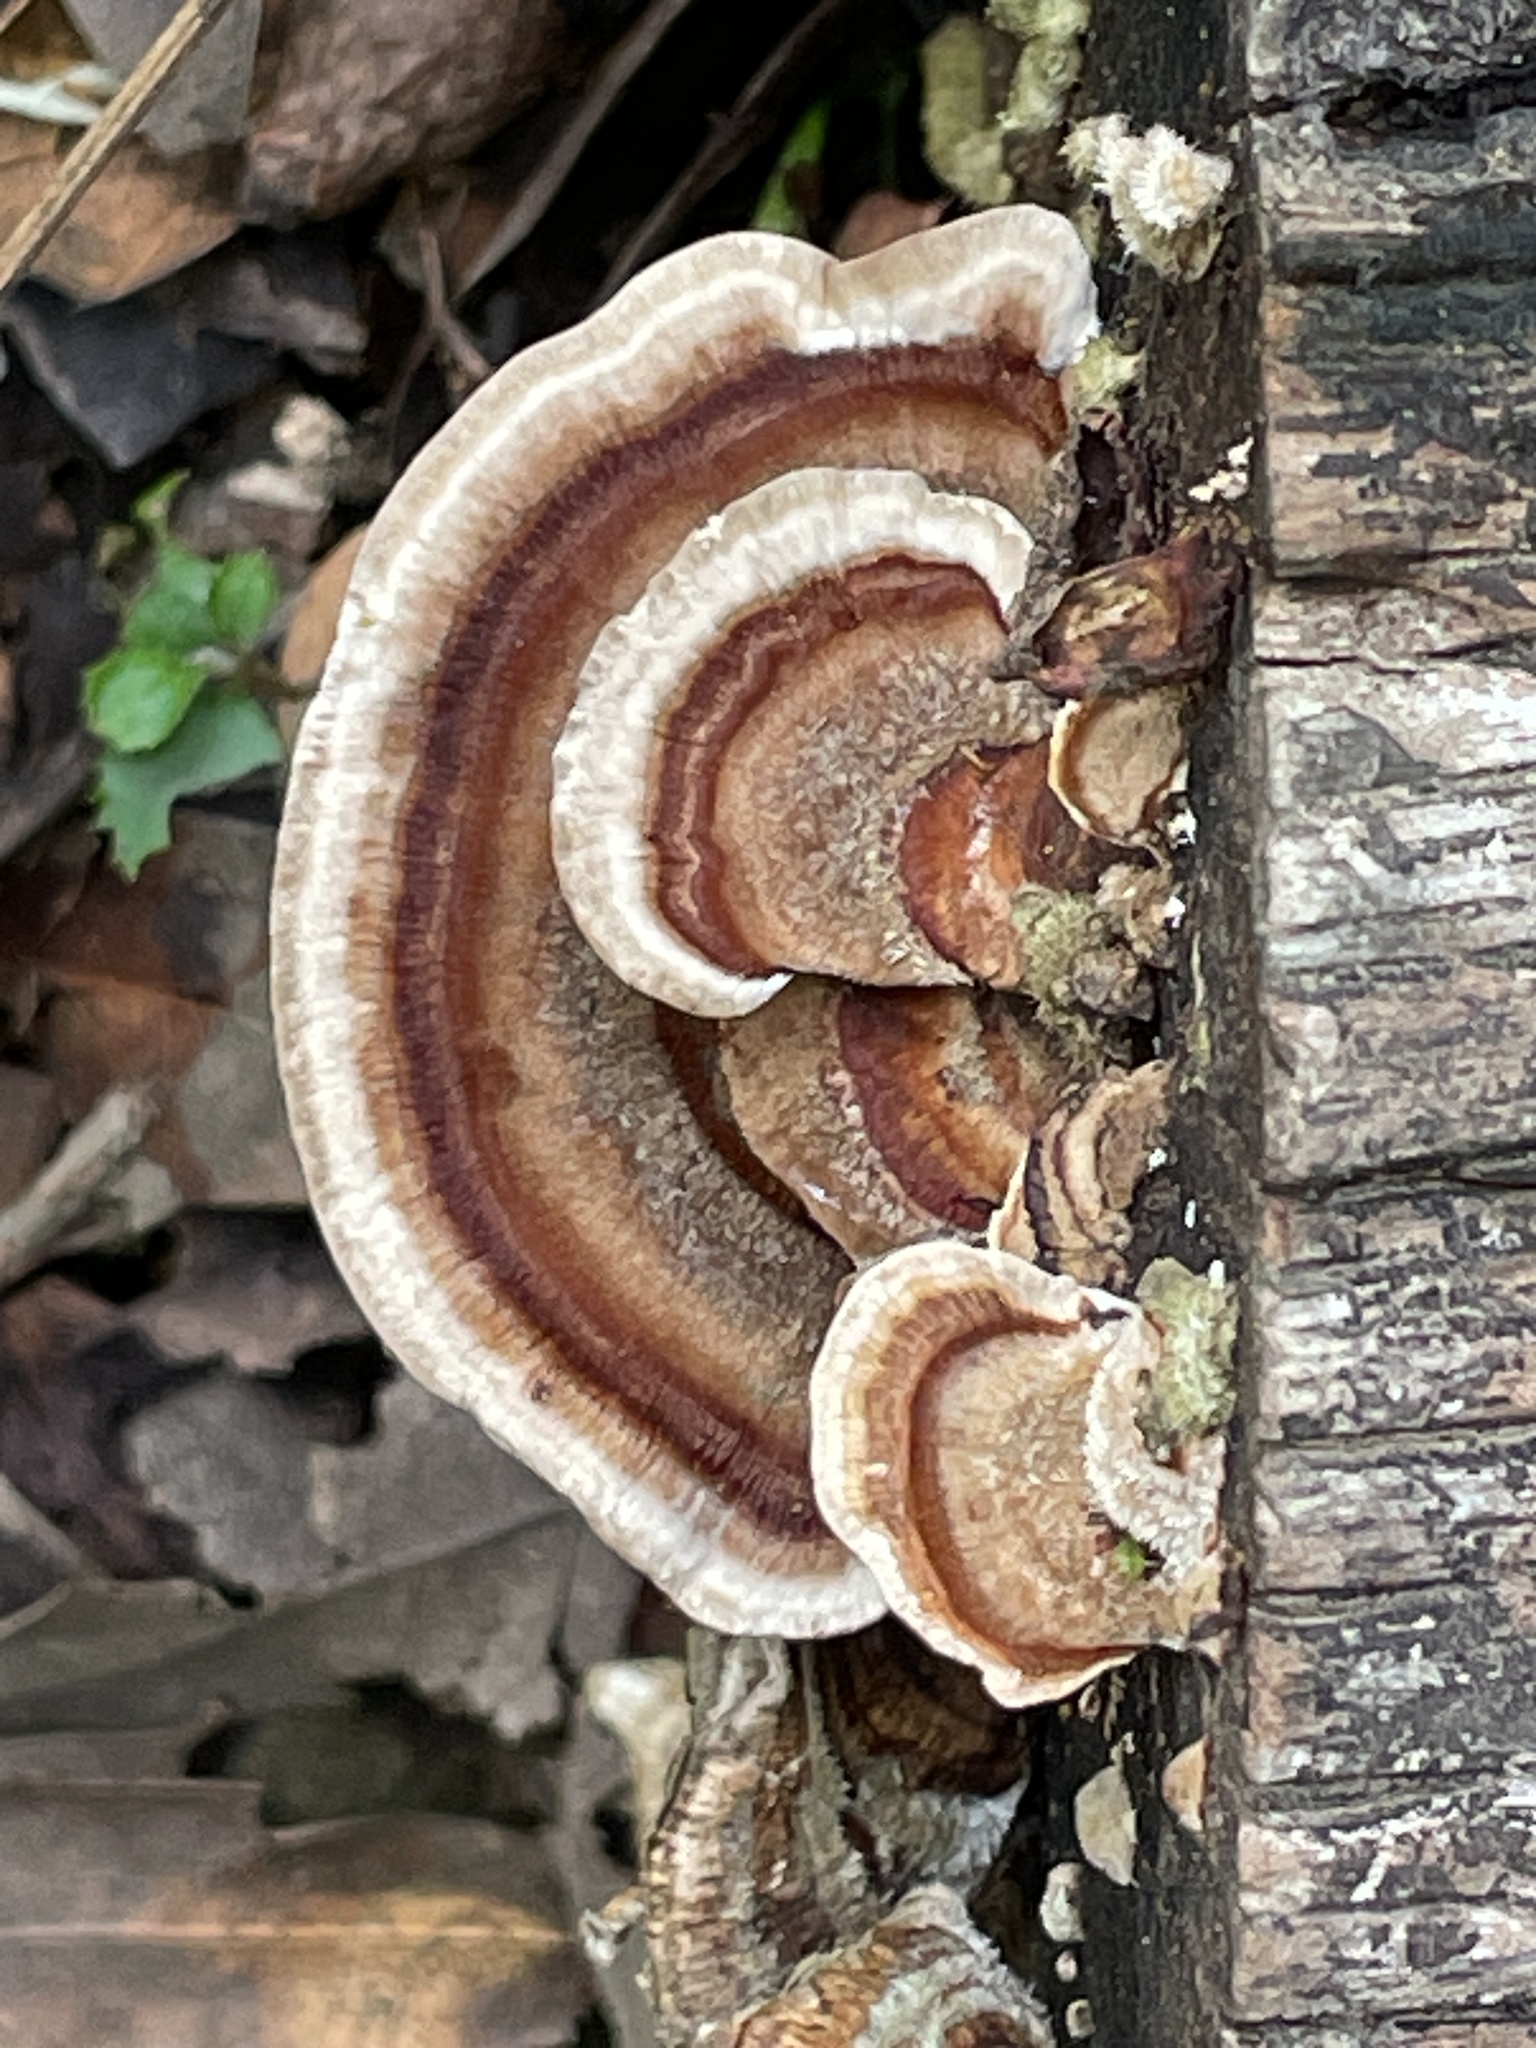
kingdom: Fungi
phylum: Basidiomycota
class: Agaricomycetes
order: Polyporales
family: Polyporaceae
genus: Trametes
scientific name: Trametes versicolor
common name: Turkeytail
